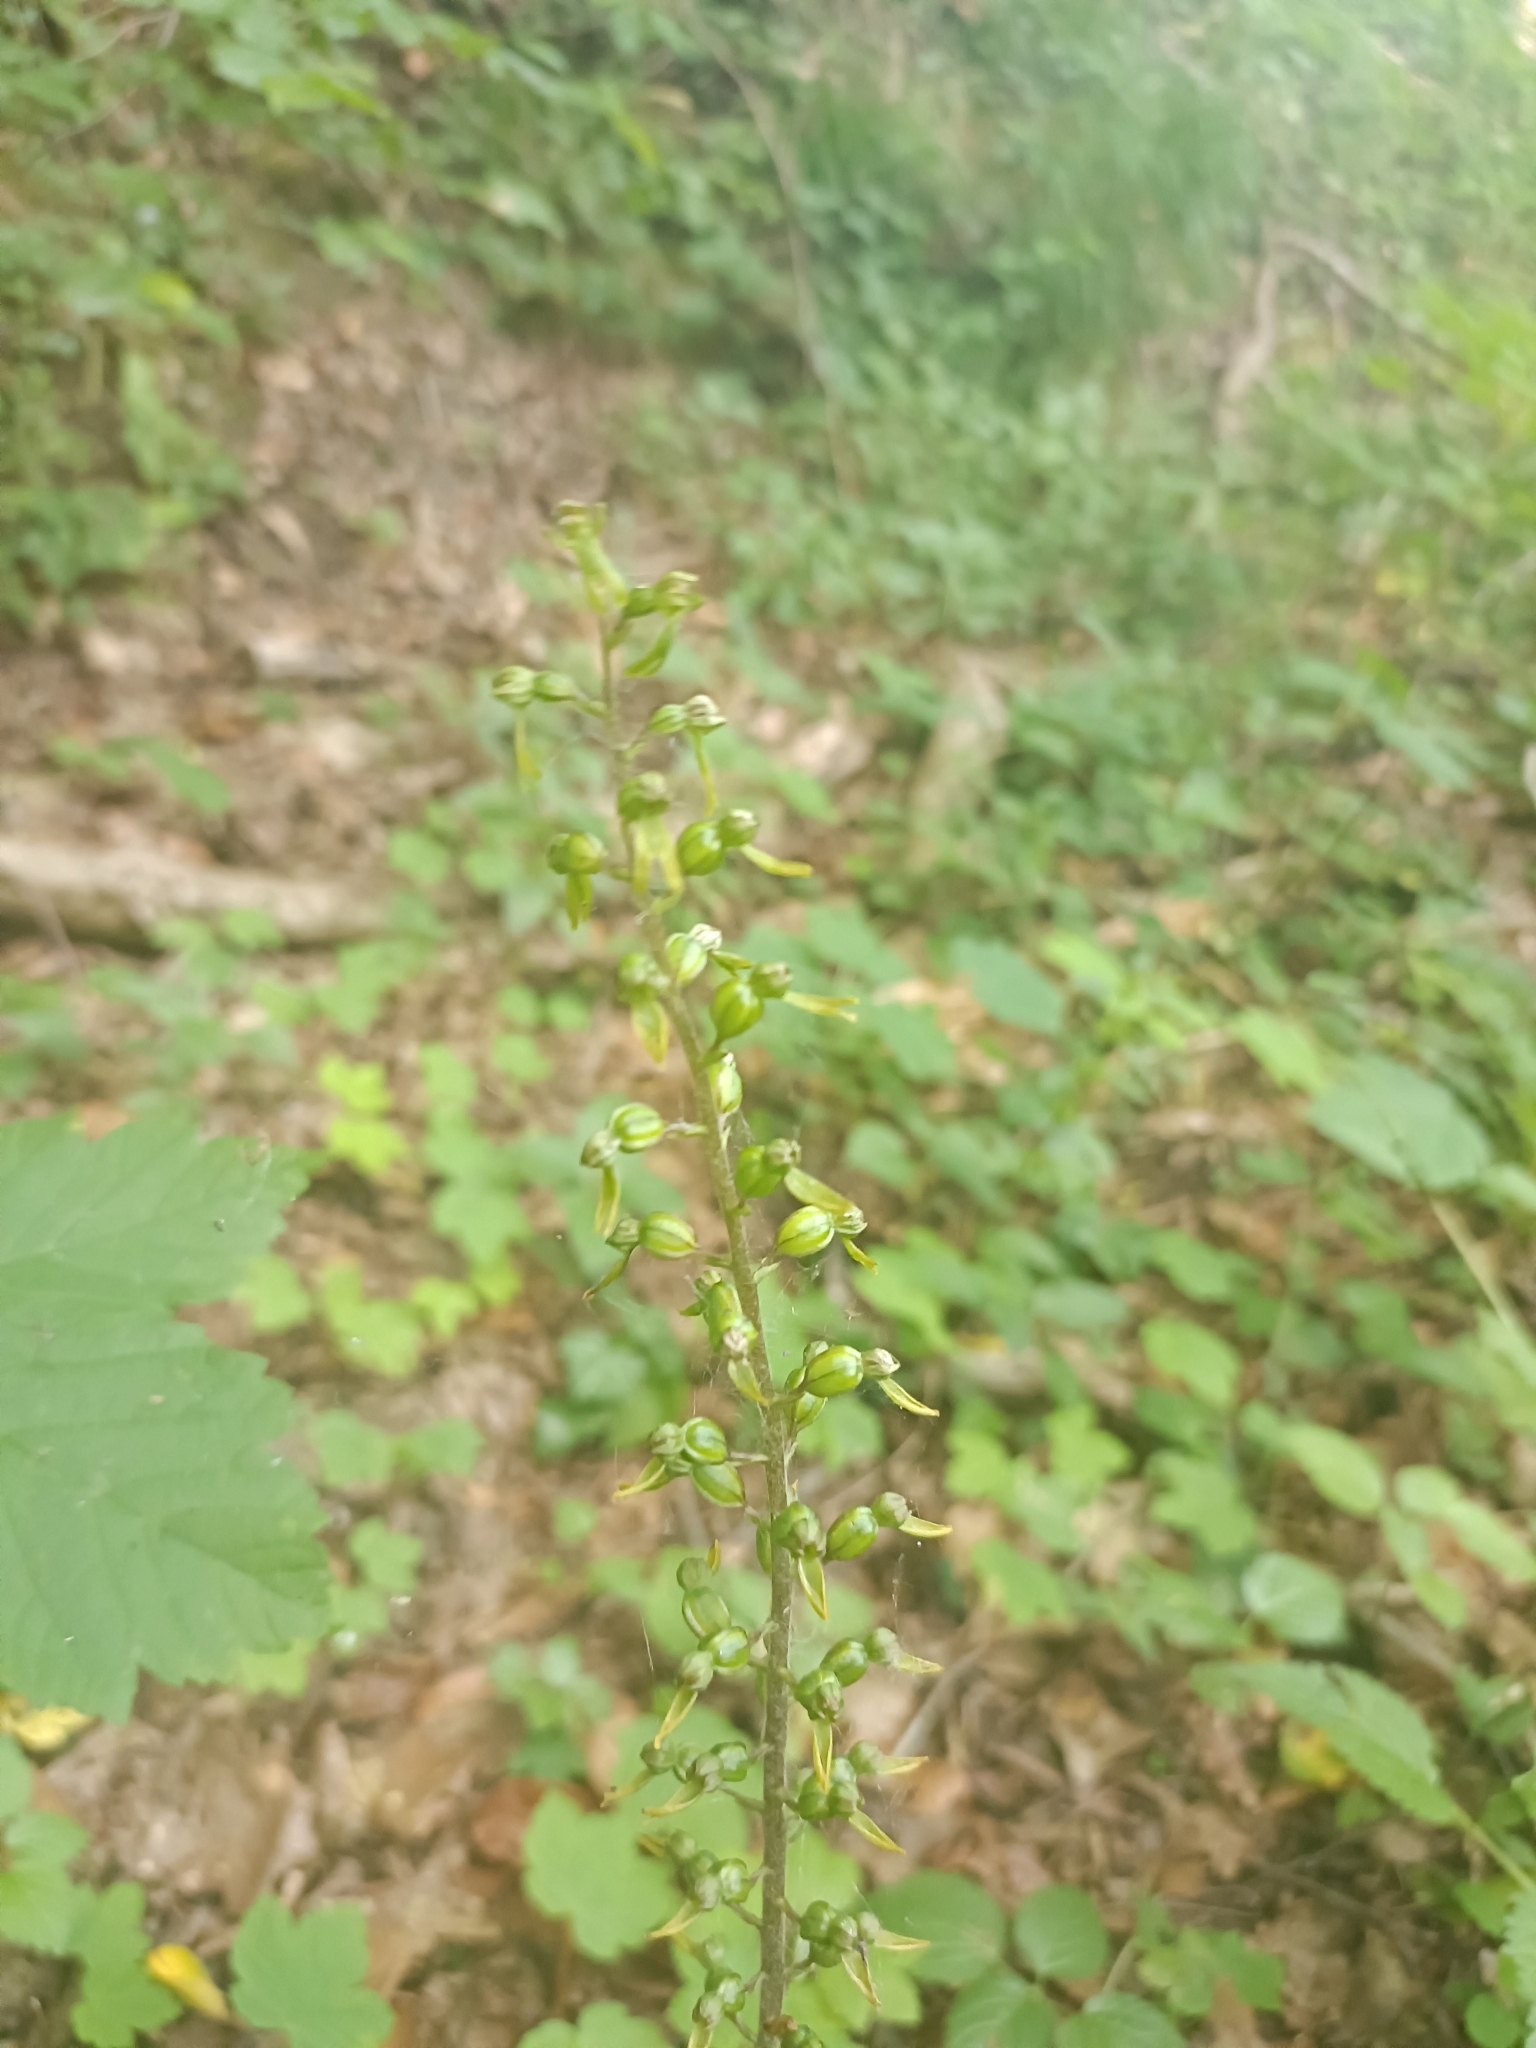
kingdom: Plantae
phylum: Tracheophyta
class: Liliopsida
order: Asparagales
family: Orchidaceae
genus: Neottia
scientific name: Neottia ovata
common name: Common twayblade
